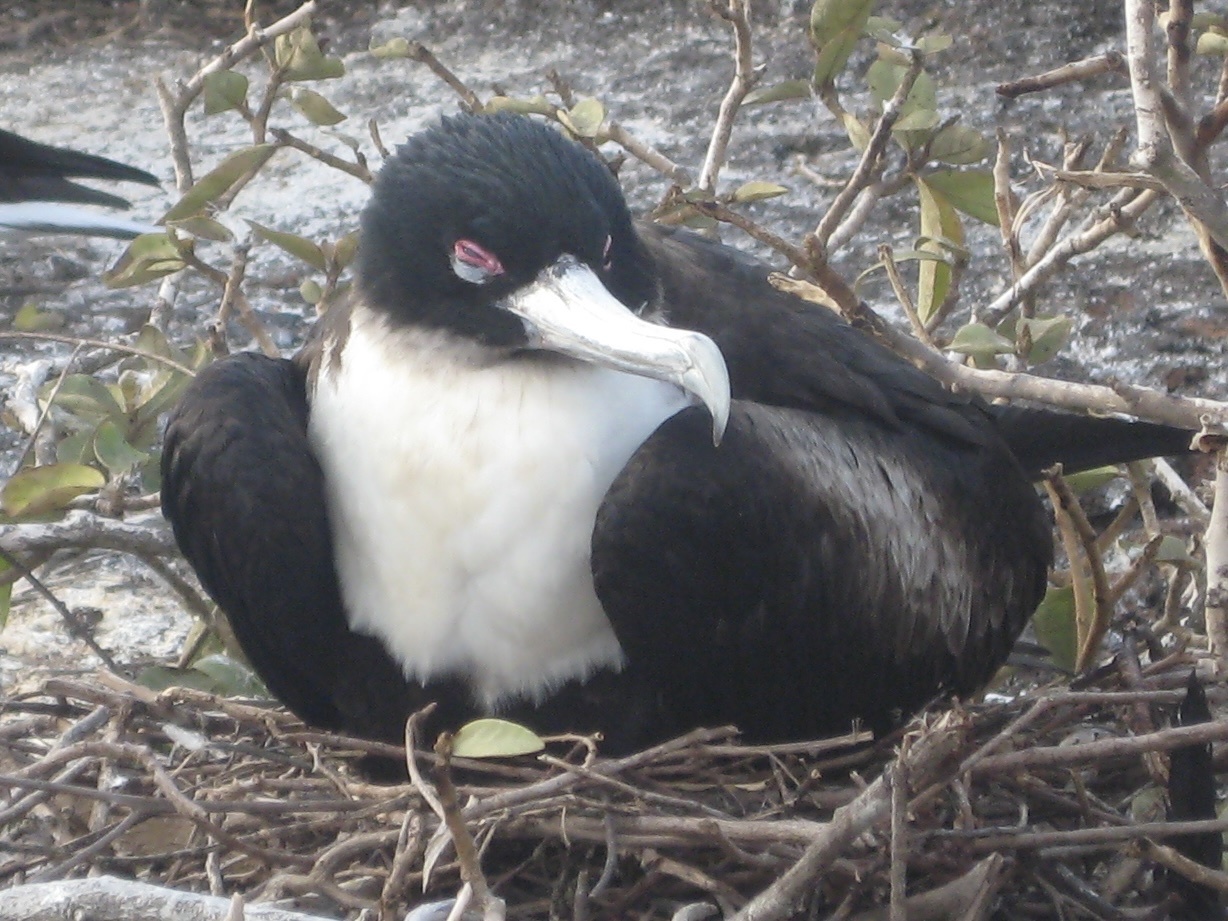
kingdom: Animalia
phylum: Chordata
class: Aves
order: Suliformes
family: Fregatidae
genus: Fregata
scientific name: Fregata minor
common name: Great frigatebird
